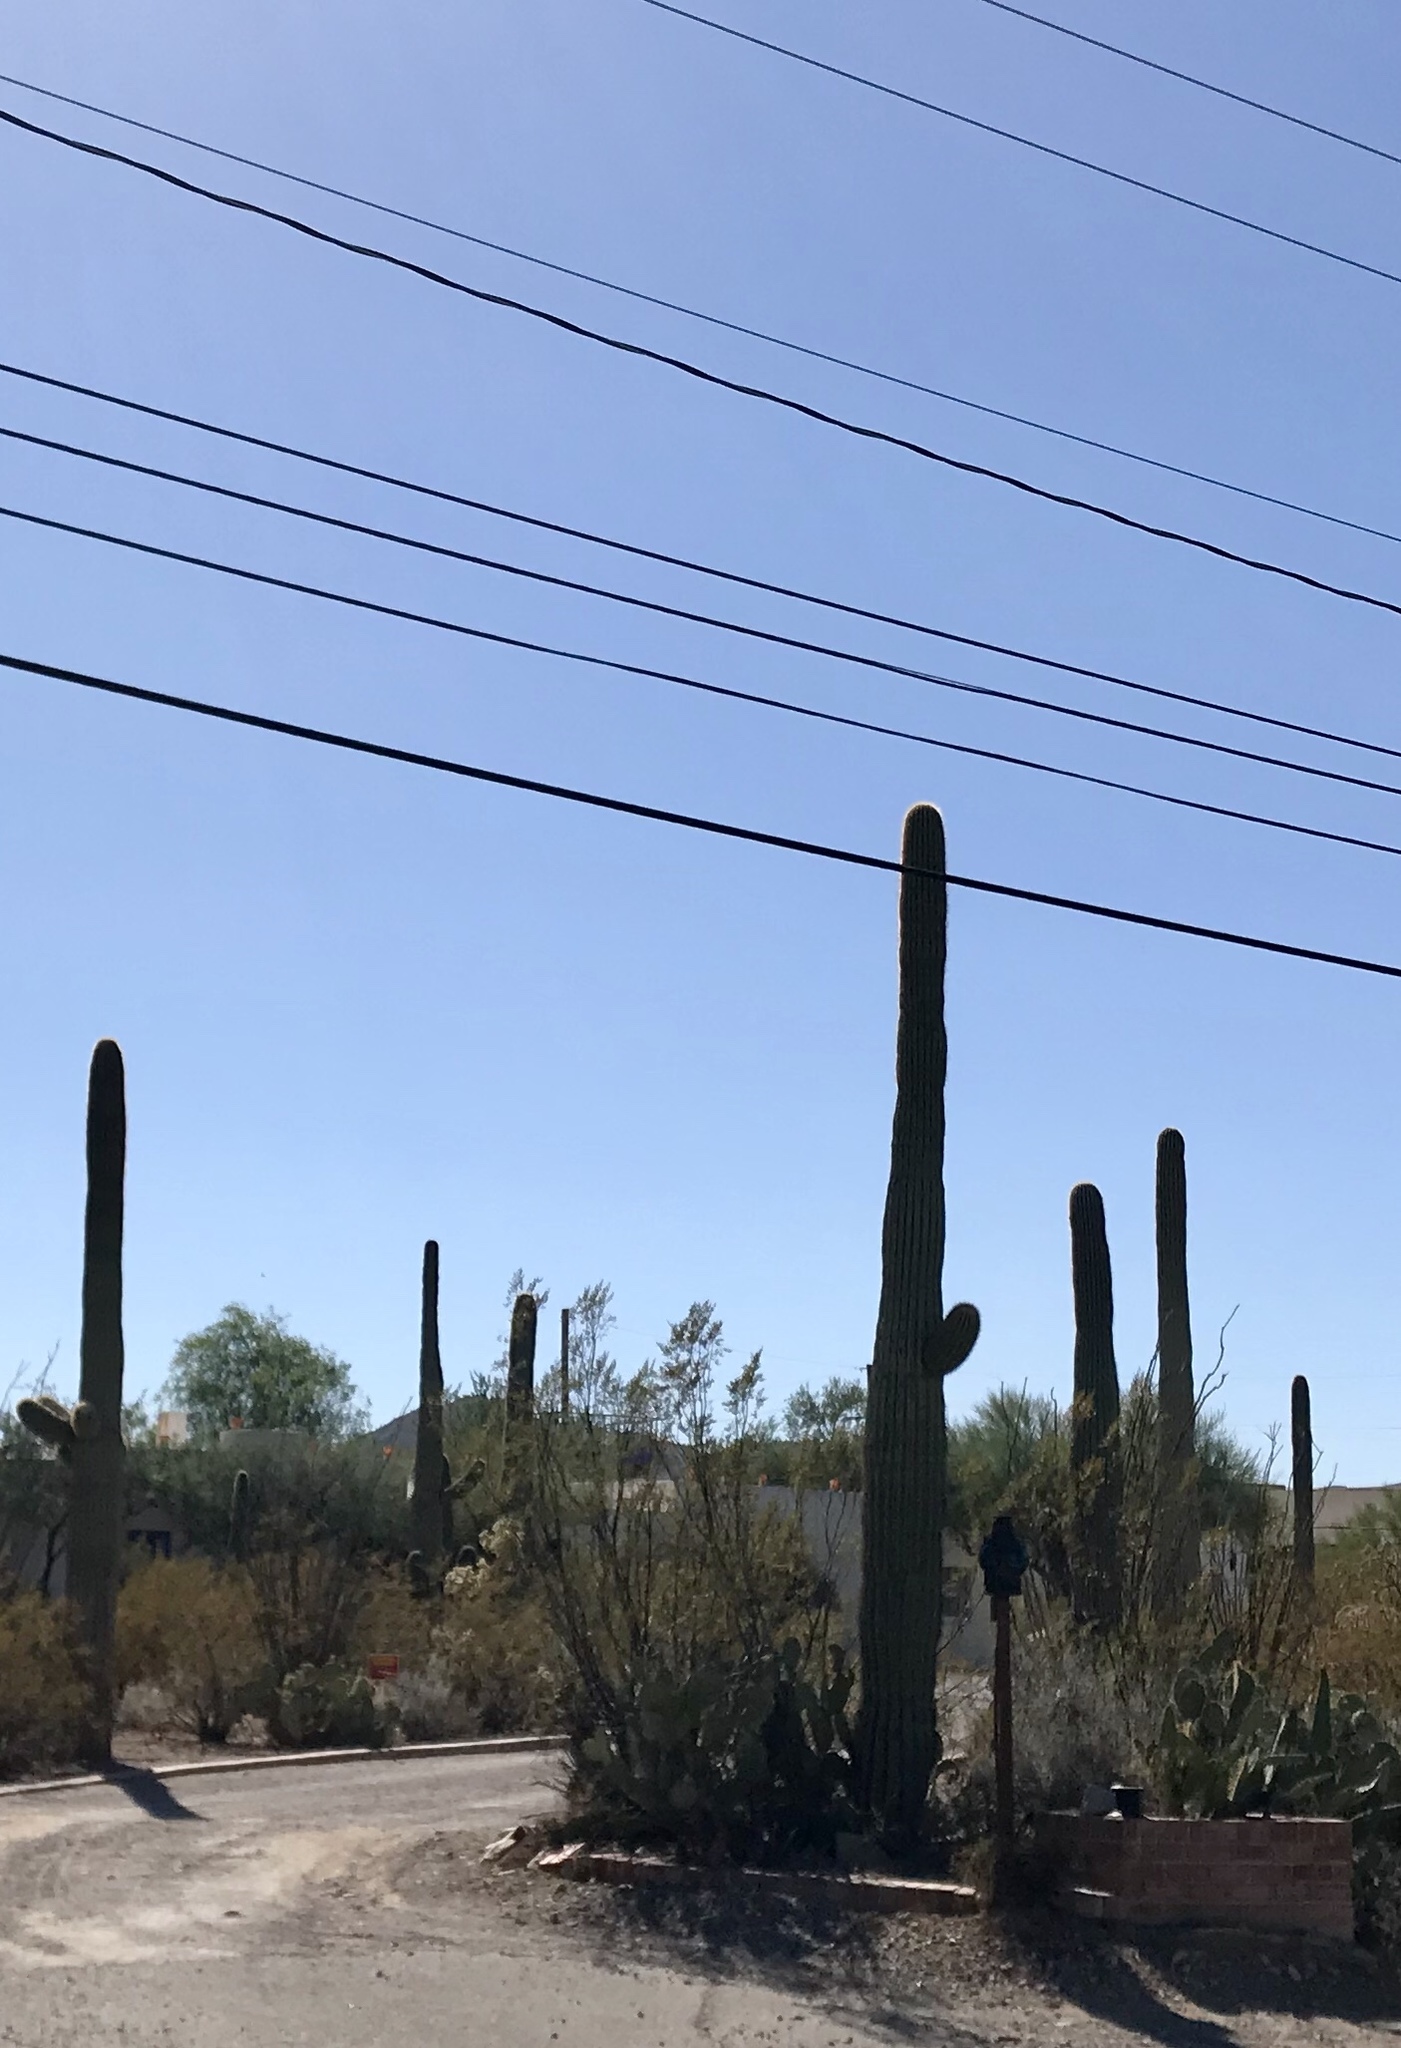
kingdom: Plantae
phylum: Tracheophyta
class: Magnoliopsida
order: Caryophyllales
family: Cactaceae
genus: Carnegiea
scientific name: Carnegiea gigantea
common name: Saguaro
